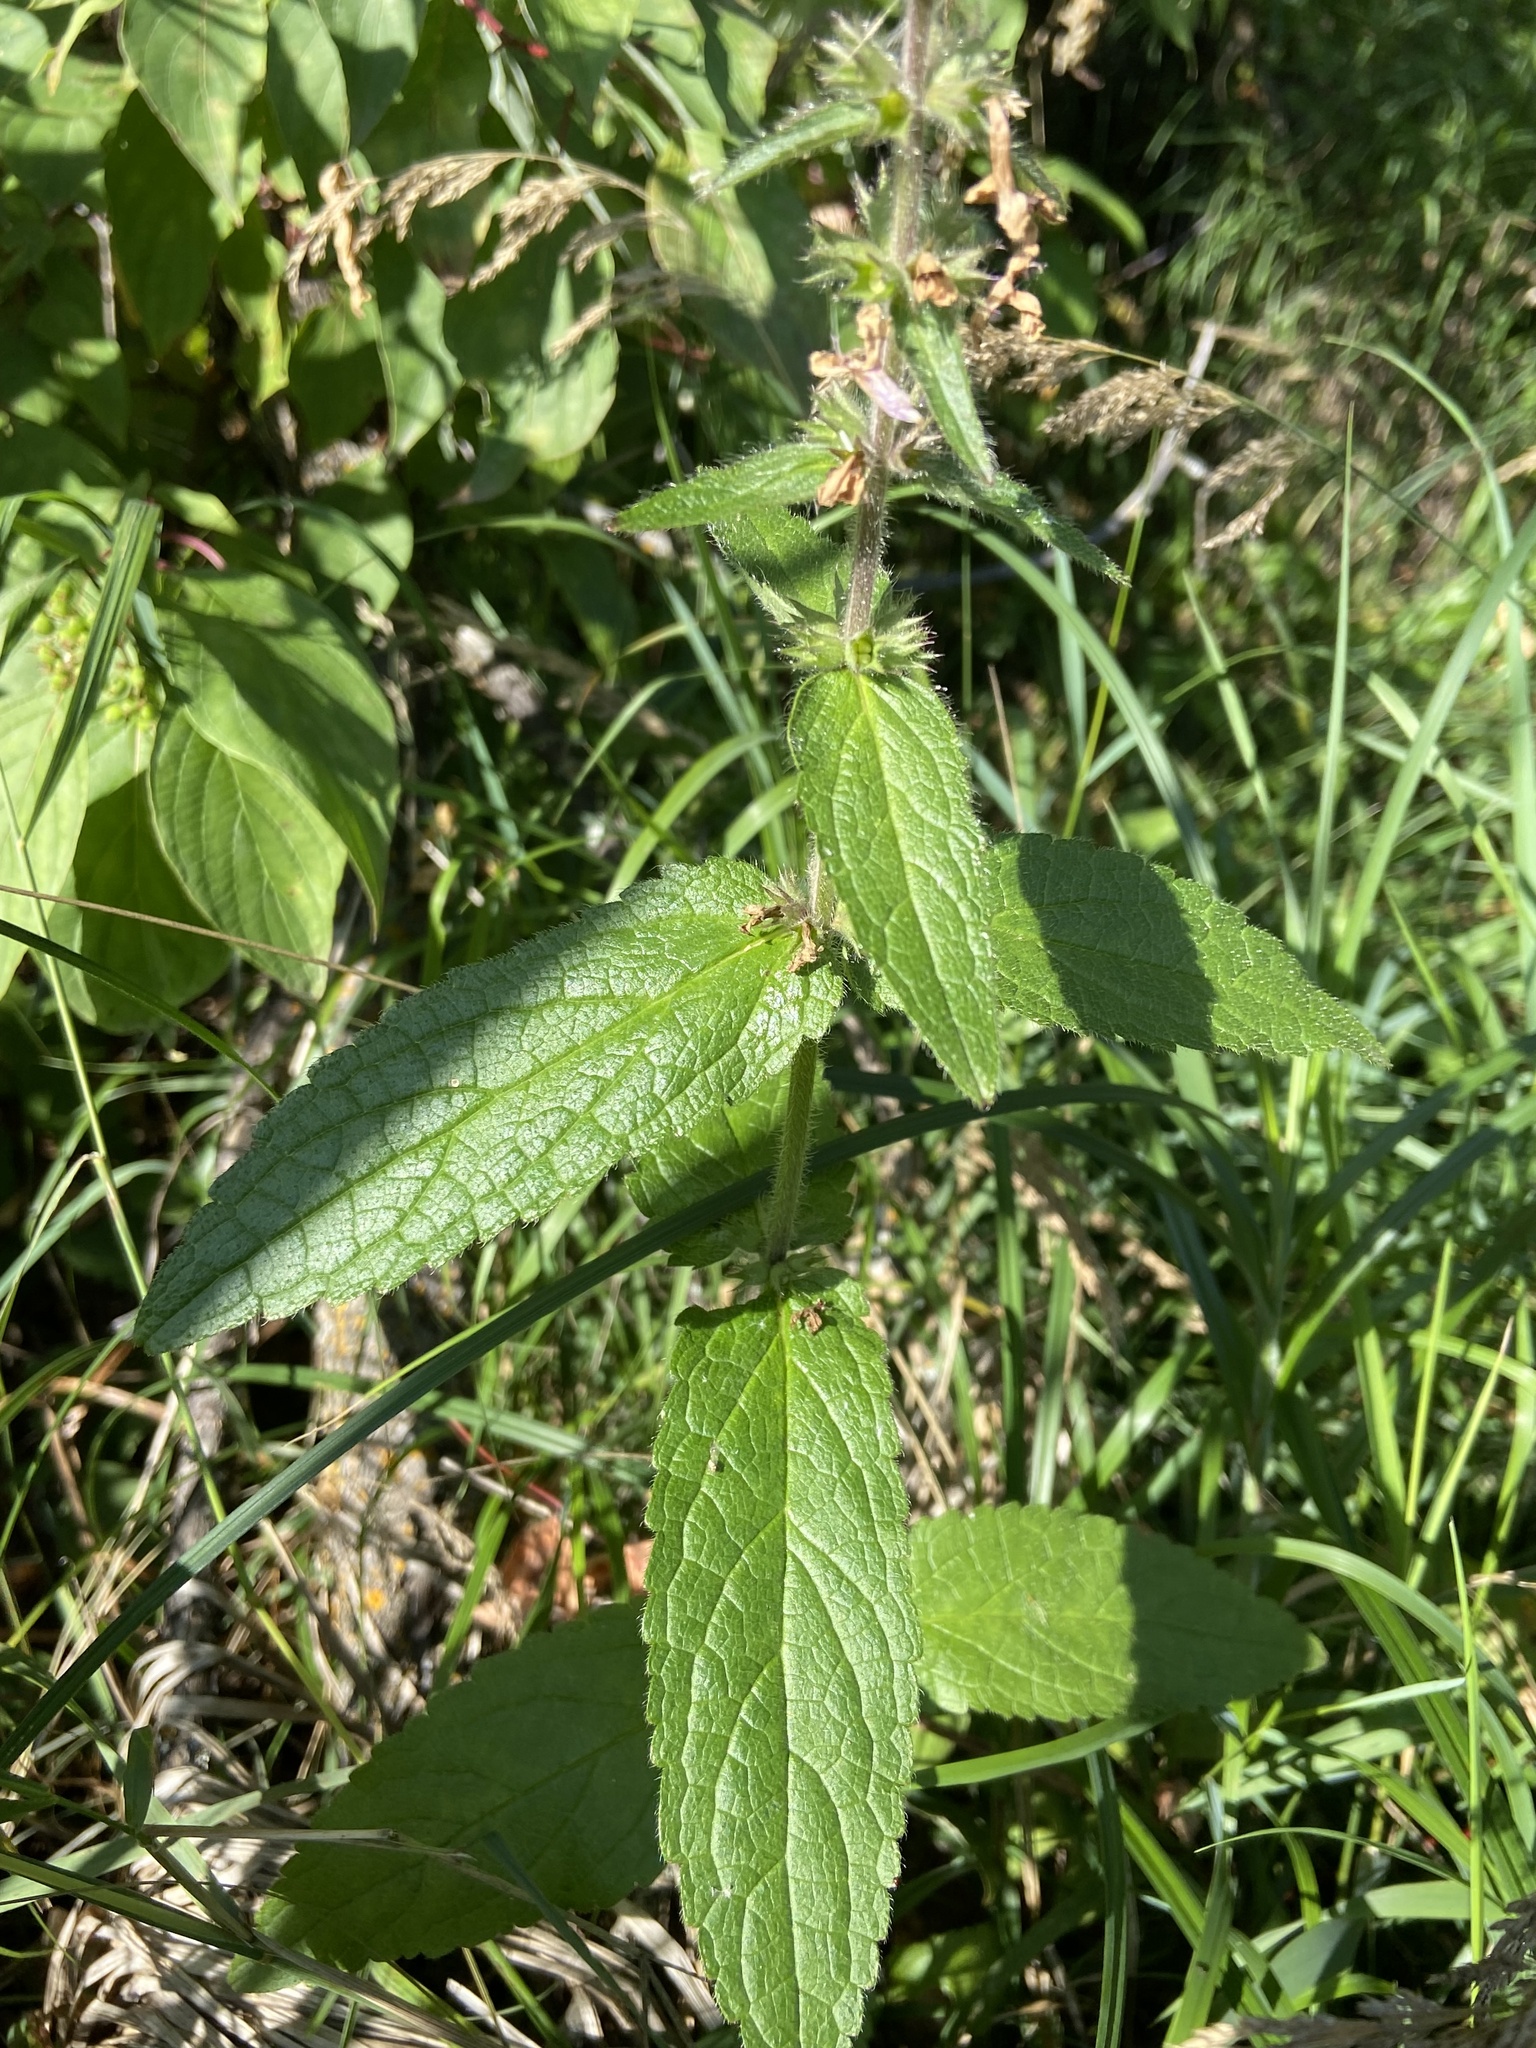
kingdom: Plantae
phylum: Tracheophyta
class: Magnoliopsida
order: Lamiales
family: Lamiaceae
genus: Stachys
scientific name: Stachys pilosa
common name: Hairy hedge-nettle
